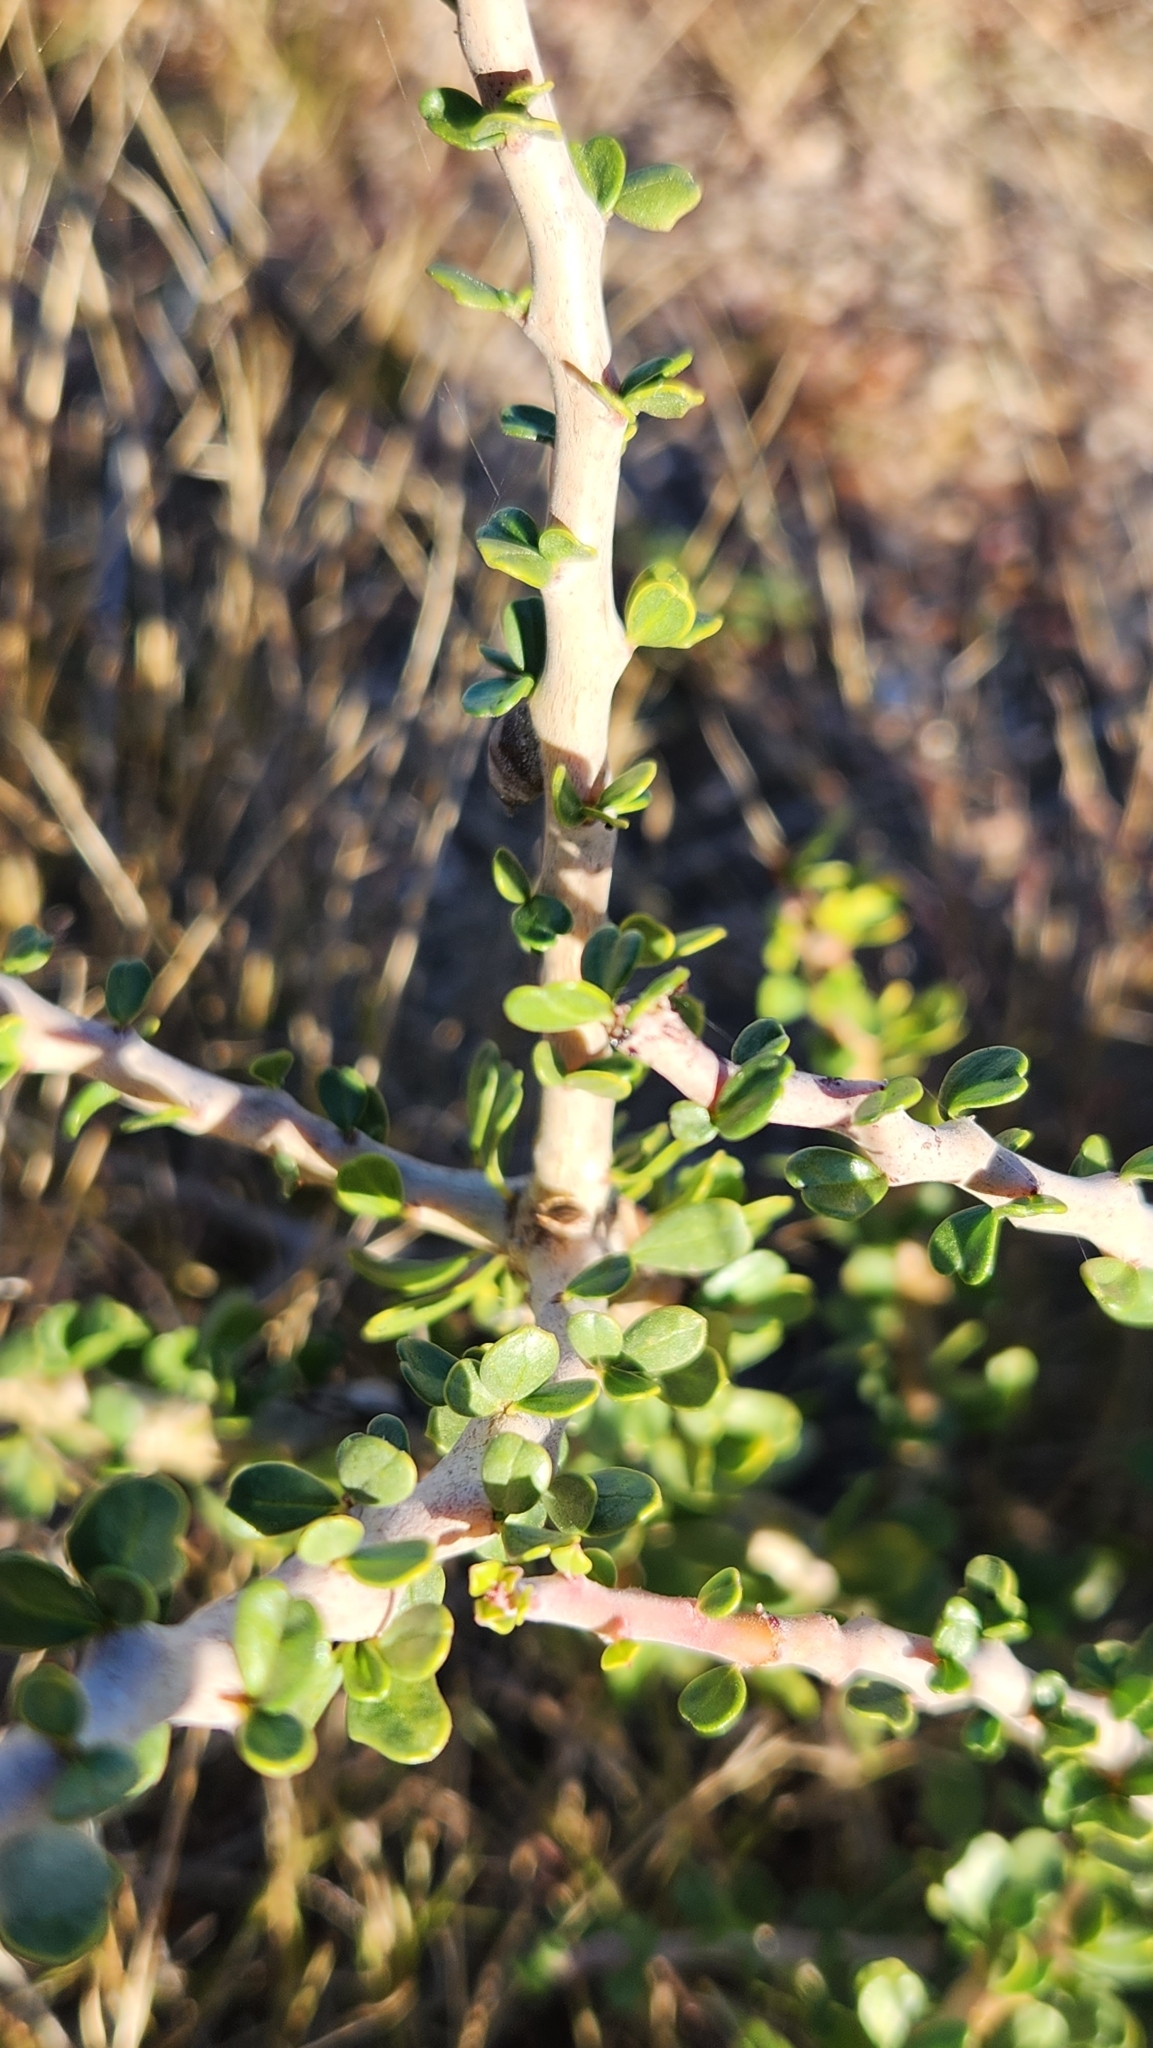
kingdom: Plantae
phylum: Tracheophyta
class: Magnoliopsida
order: Malpighiales
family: Euphorbiaceae
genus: Jatropha
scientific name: Jatropha cuneata
